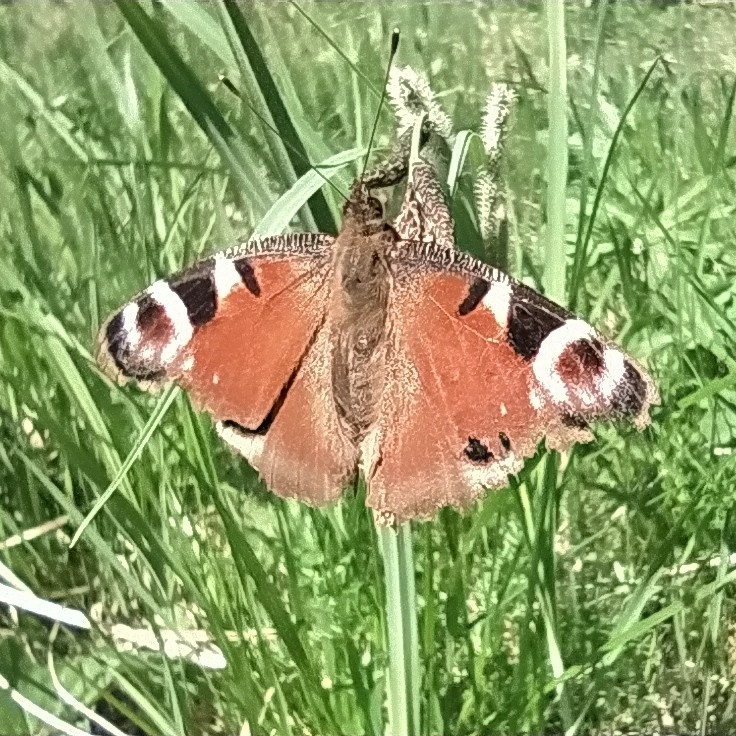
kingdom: Animalia
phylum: Arthropoda
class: Insecta
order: Lepidoptera
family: Nymphalidae
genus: Aglais
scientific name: Aglais io
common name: Peacock
